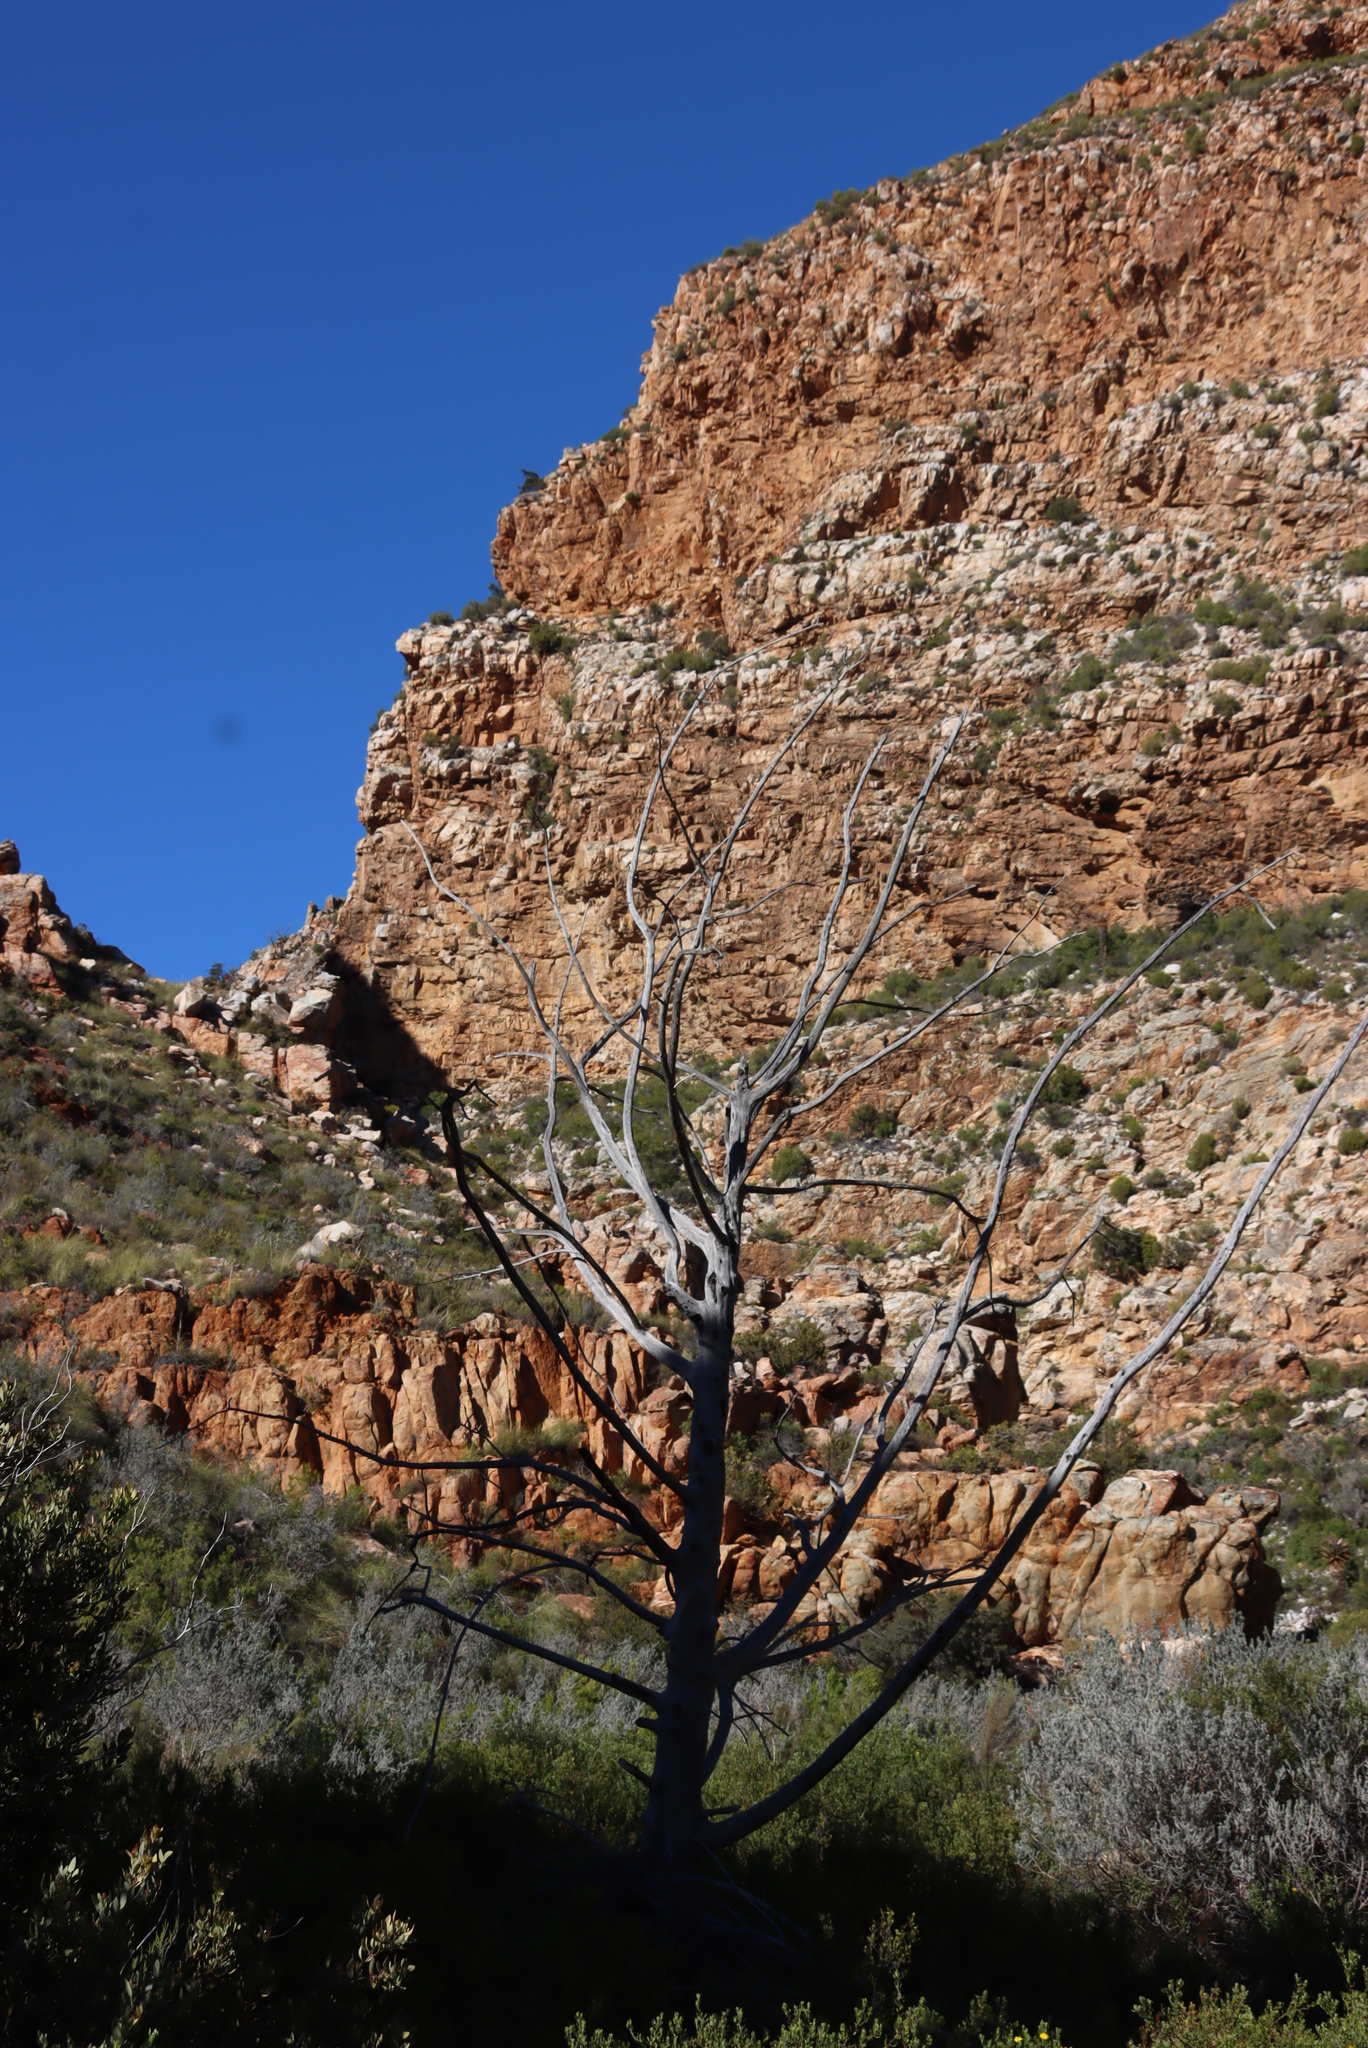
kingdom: Plantae
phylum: Tracheophyta
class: Pinopsida
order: Pinales
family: Cupressaceae
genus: Widdringtonia
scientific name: Widdringtonia schwarzii
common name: Baviaans cedar
